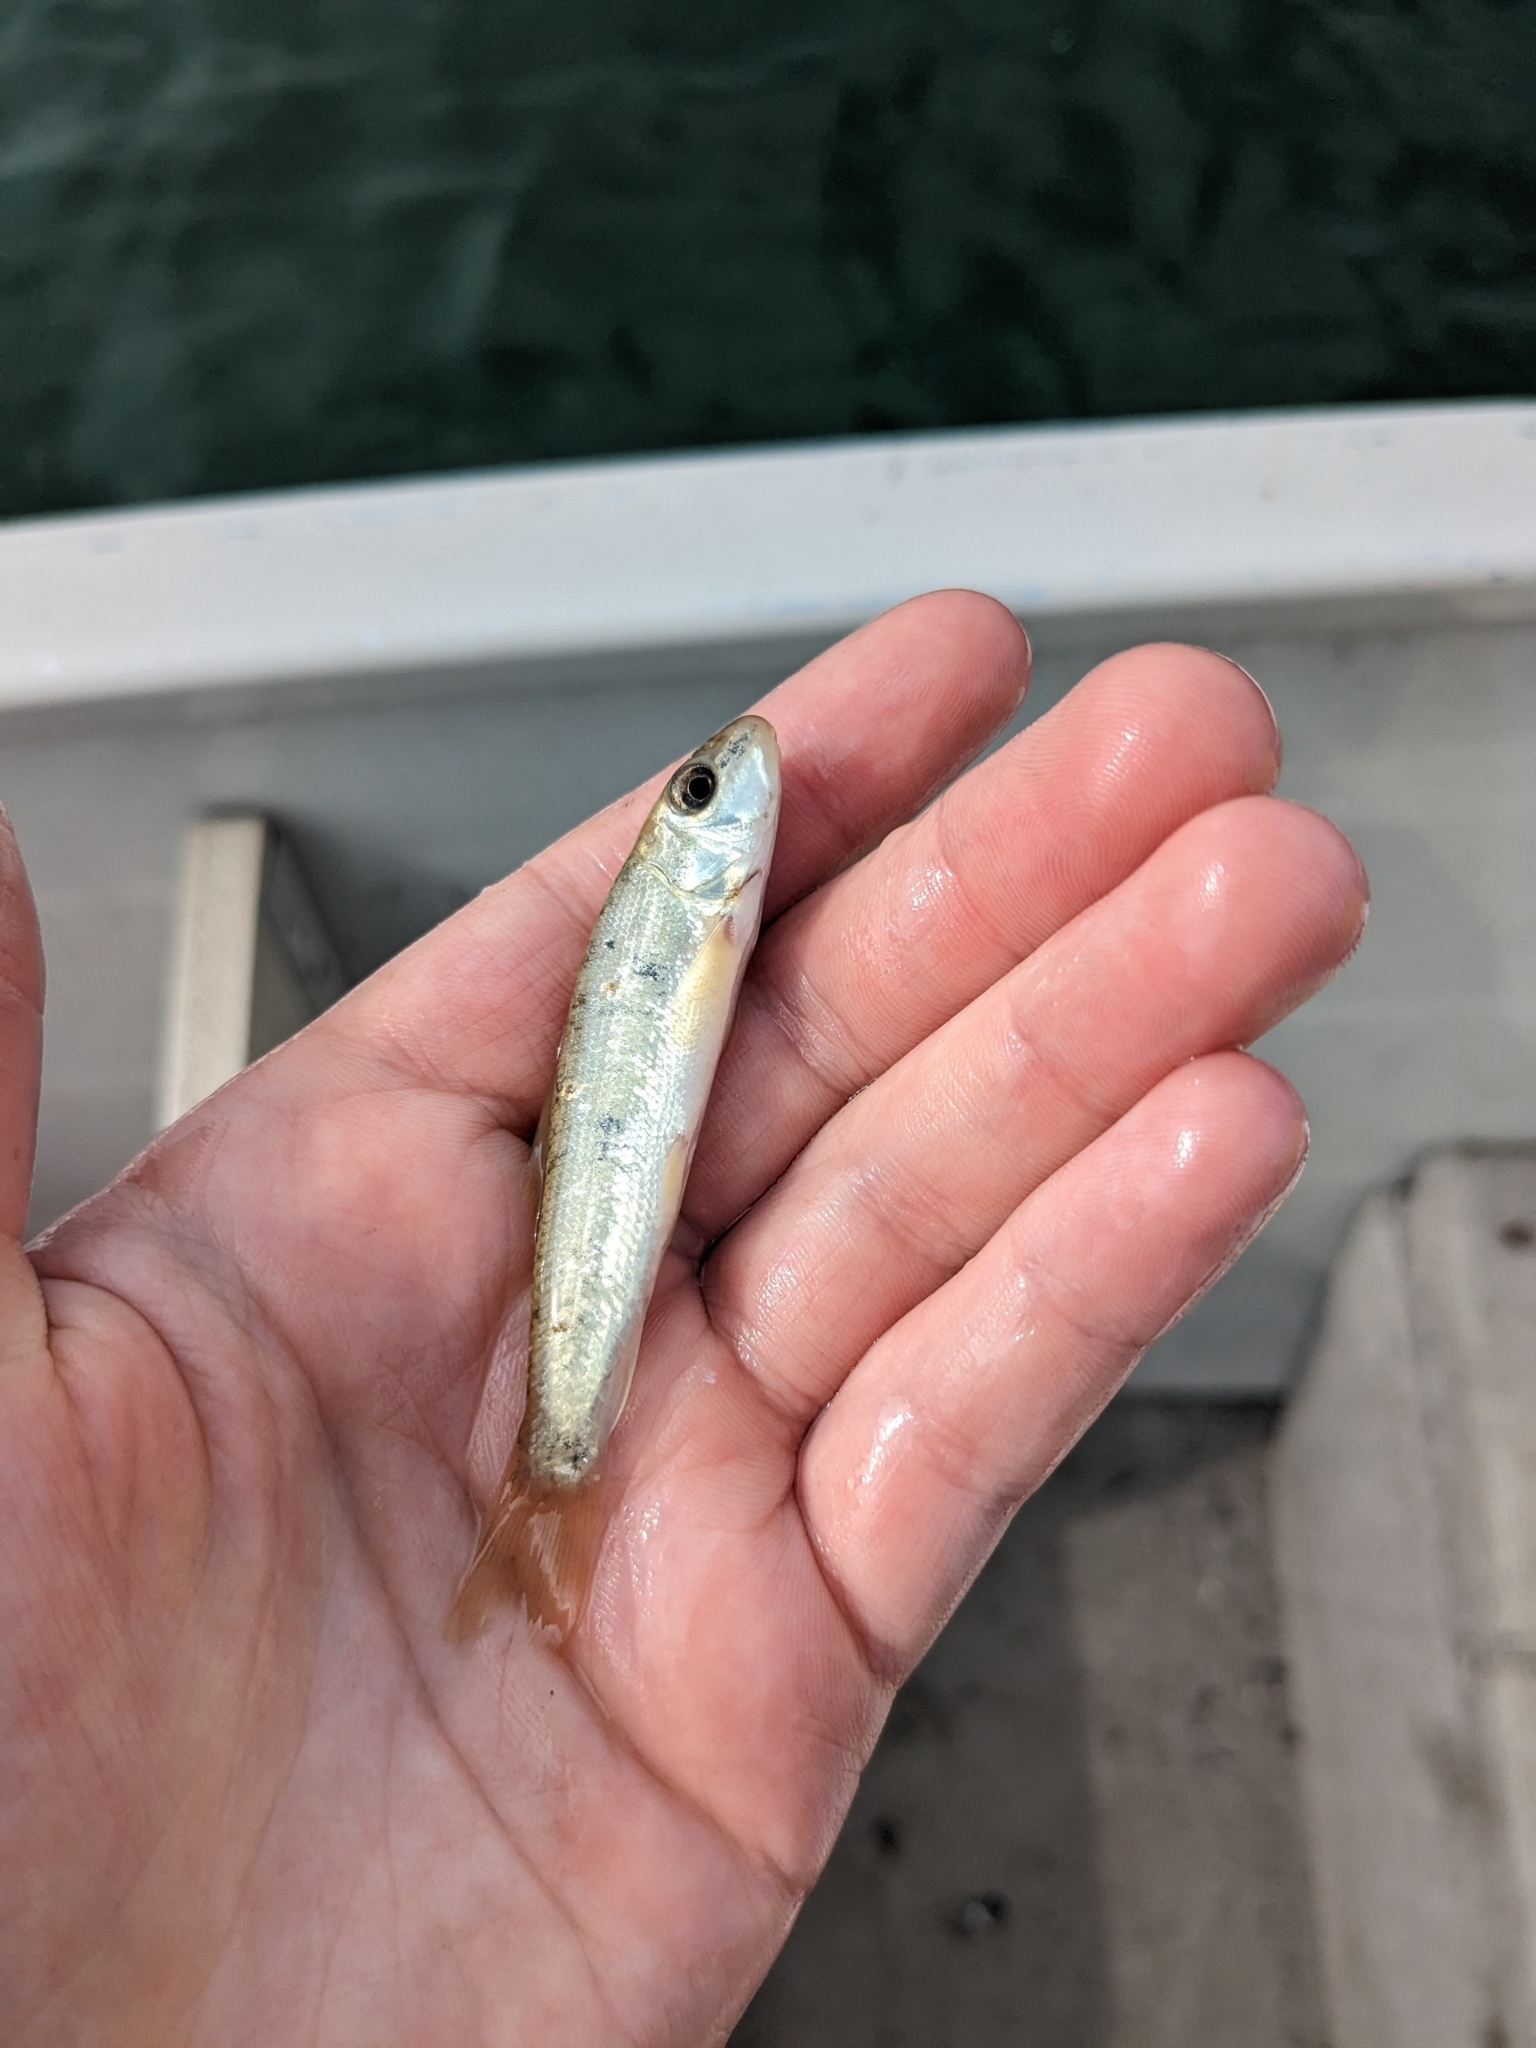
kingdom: Animalia
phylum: Chordata
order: Cypriniformes
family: Catostomidae
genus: Catostomus
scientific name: Catostomus commersonii
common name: White sucker
